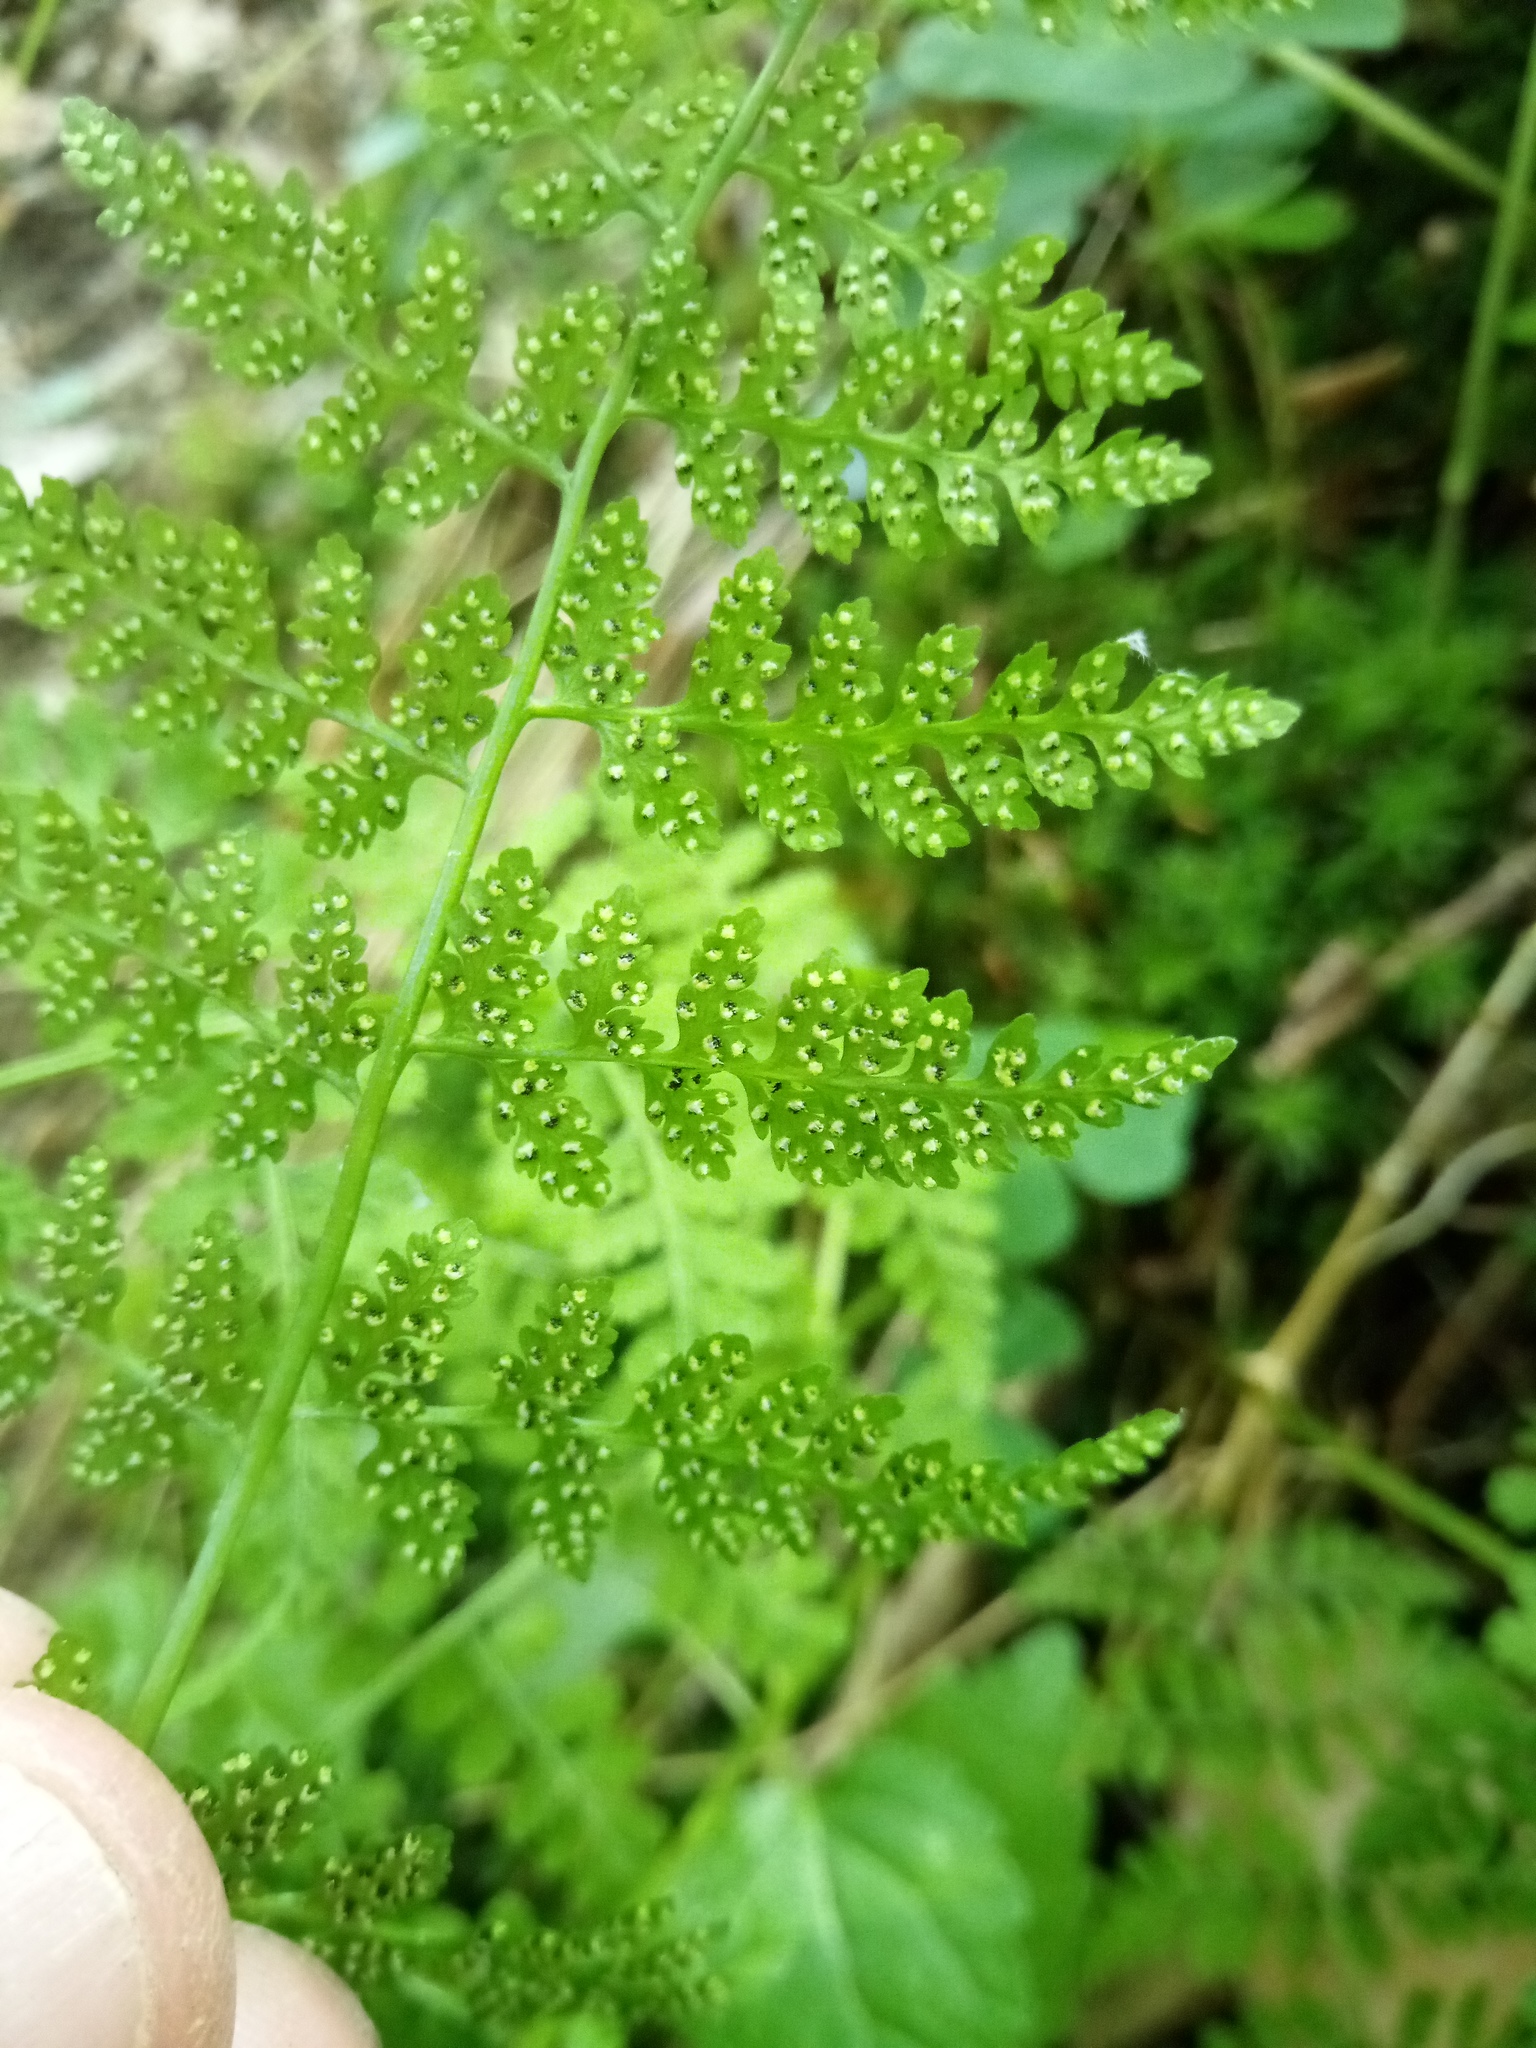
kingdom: Plantae
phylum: Tracheophyta
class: Polypodiopsida
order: Polypodiales
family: Cystopteridaceae
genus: Cystopteris
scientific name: Cystopteris fragilis
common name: Brittle bladder fern
